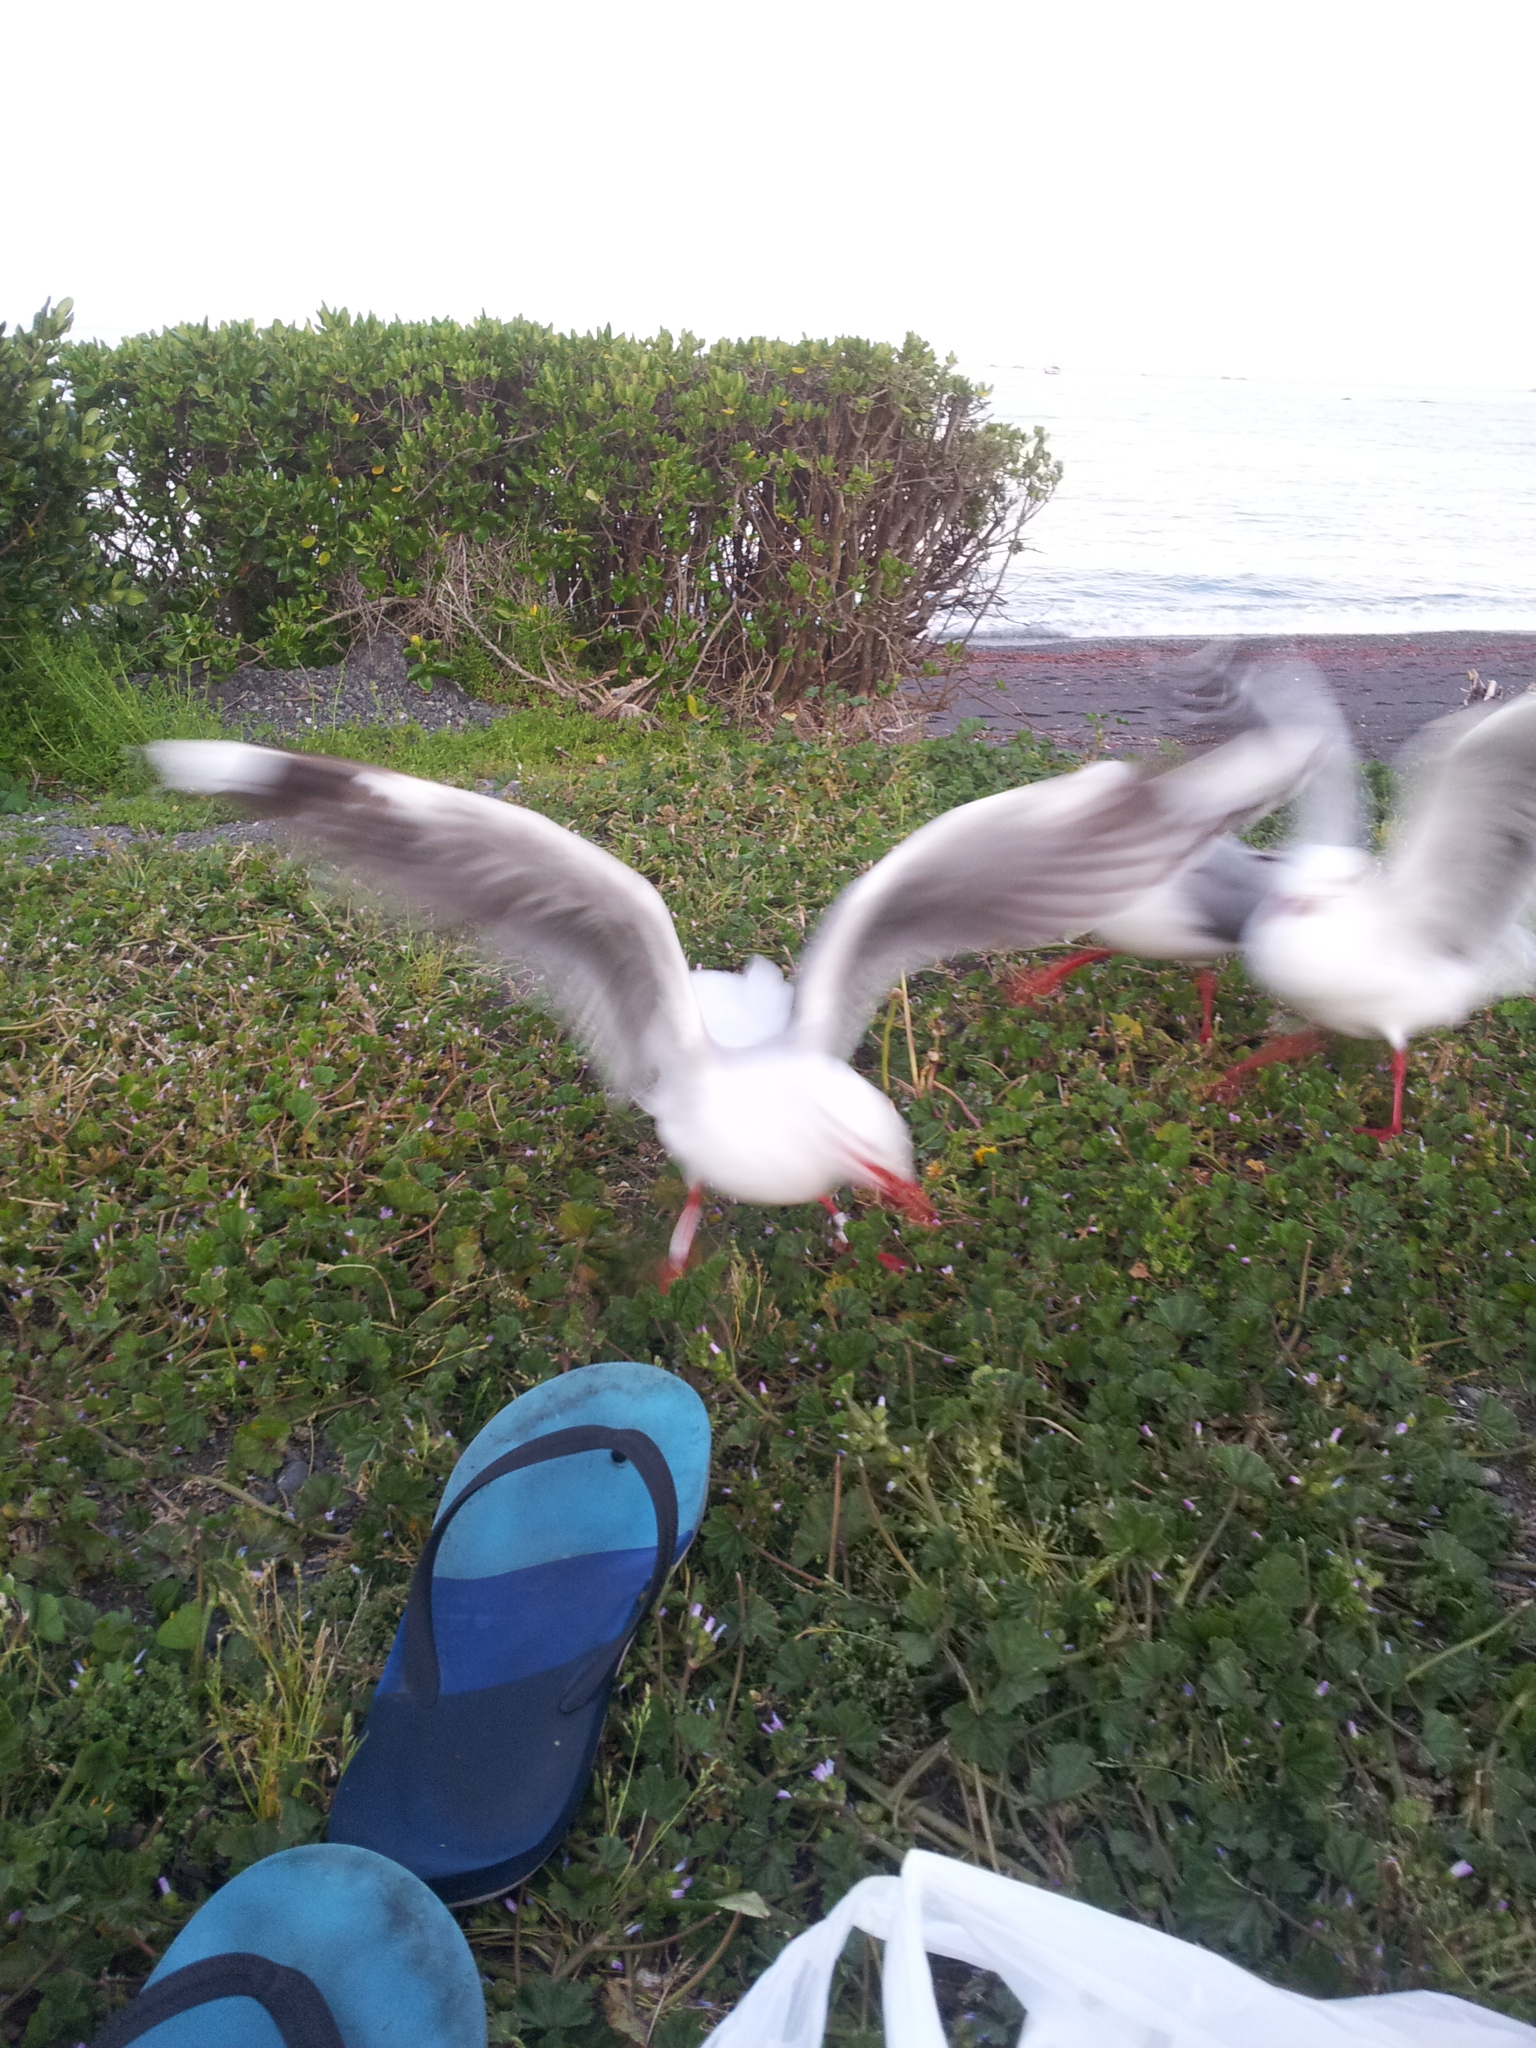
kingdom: Animalia
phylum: Chordata
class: Aves
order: Charadriiformes
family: Laridae
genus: Chroicocephalus
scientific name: Chroicocephalus novaehollandiae
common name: Silver gull
